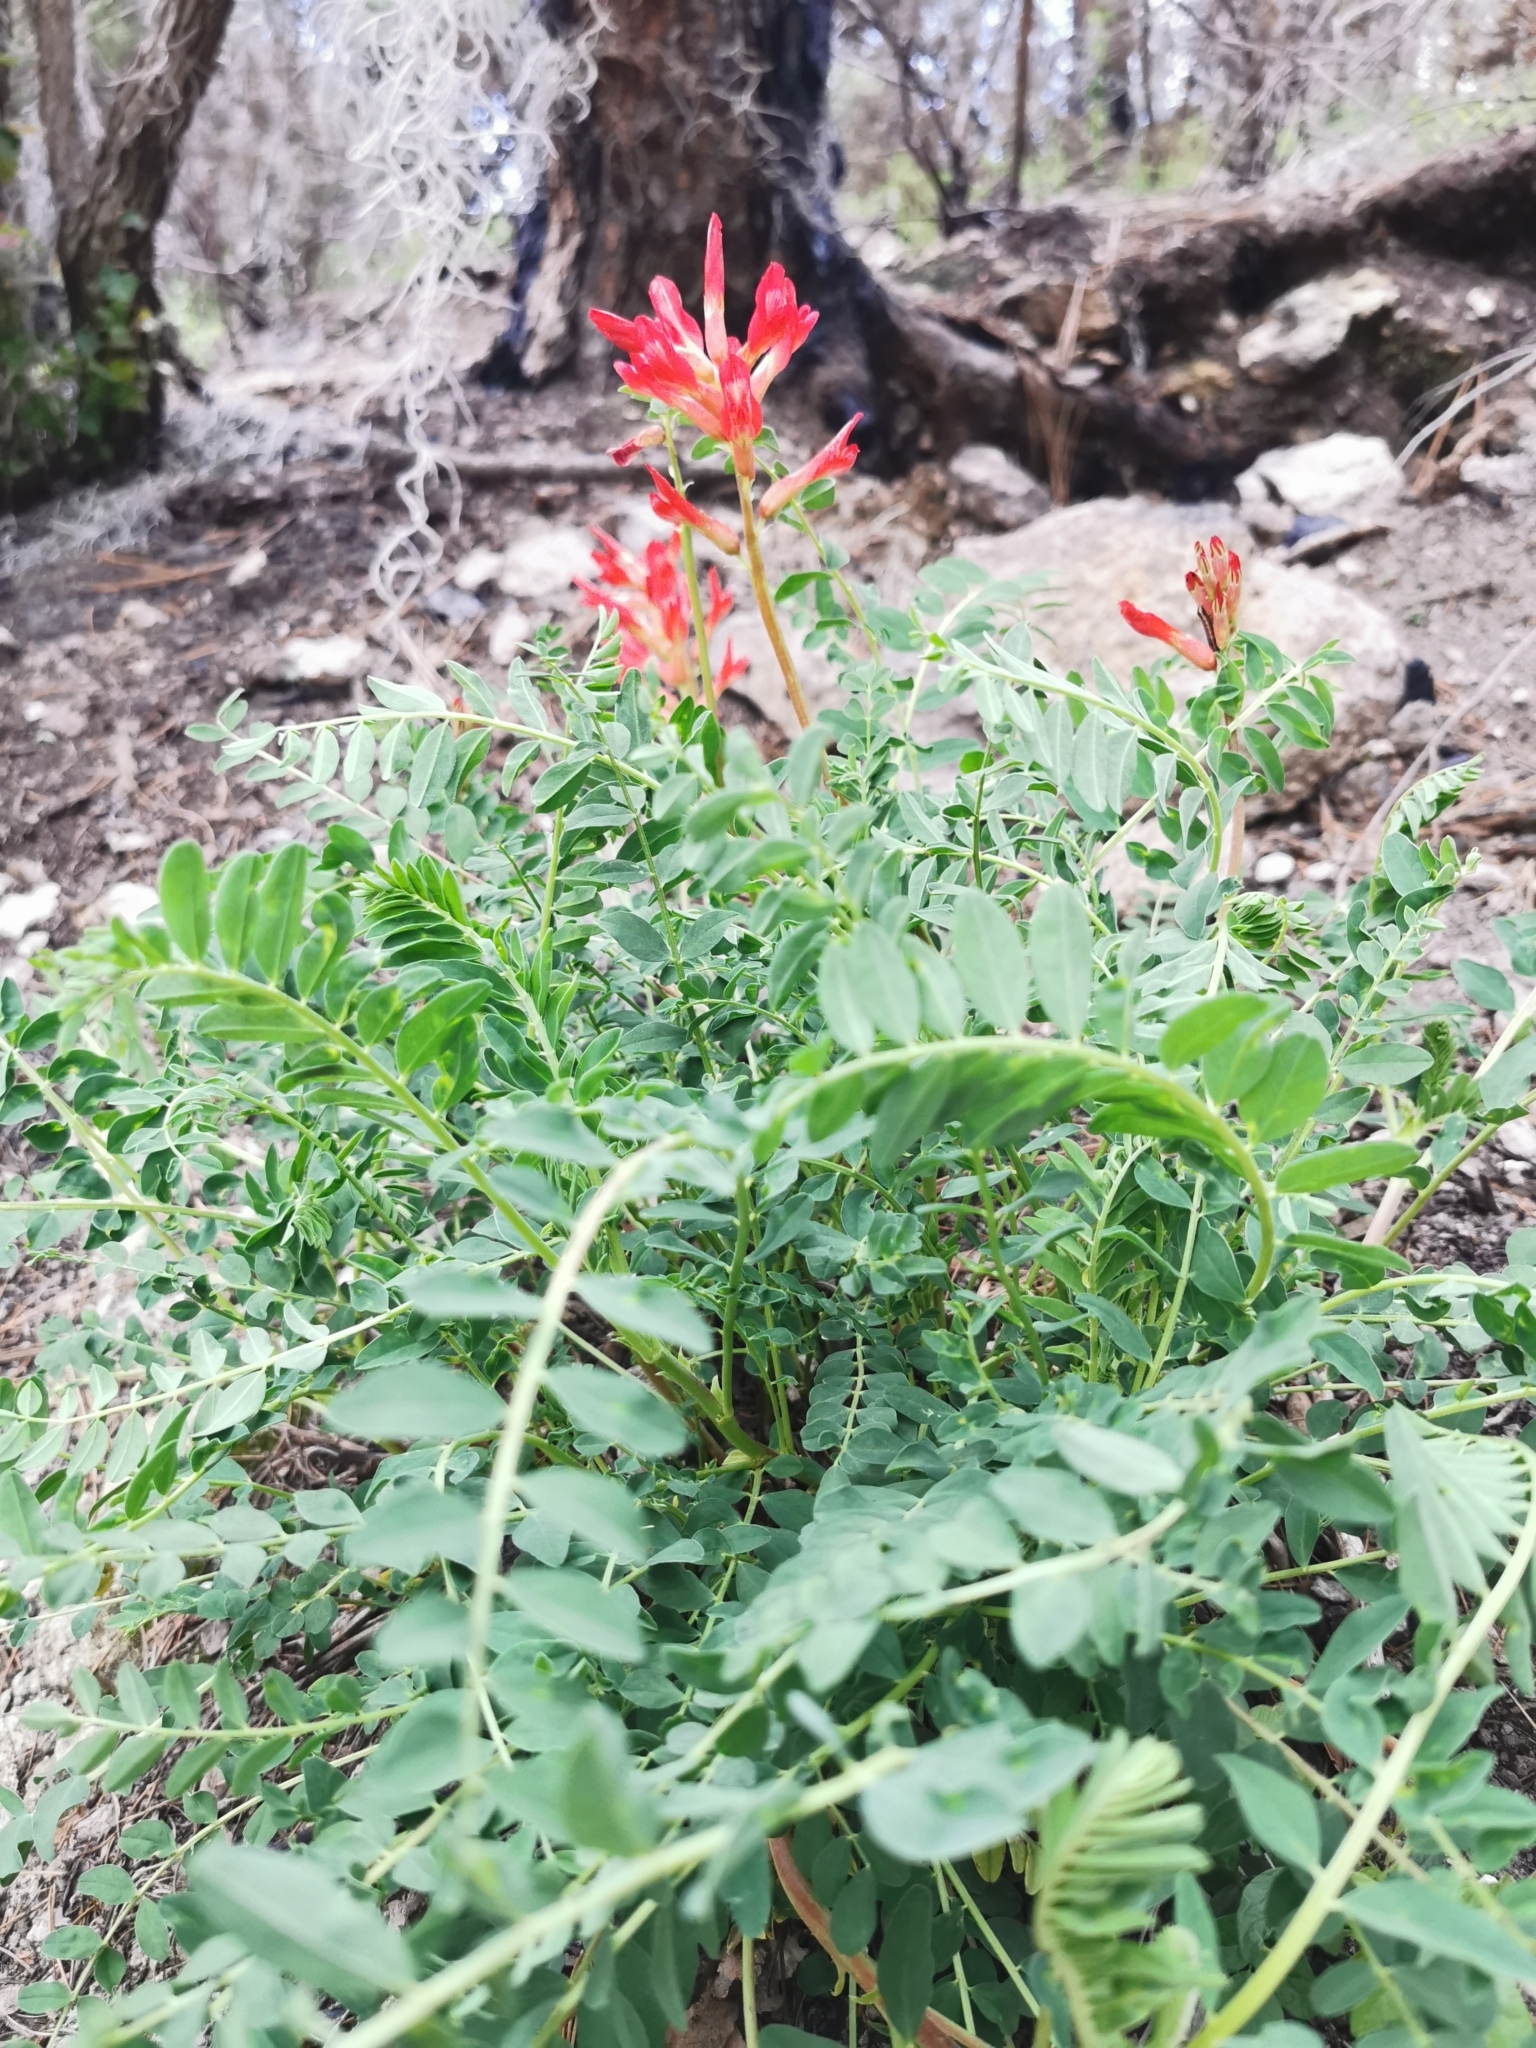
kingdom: Plantae
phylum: Tracheophyta
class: Magnoliopsida
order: Fabales
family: Fabaceae
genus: Astragalus
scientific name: Astragalus sanguineus
